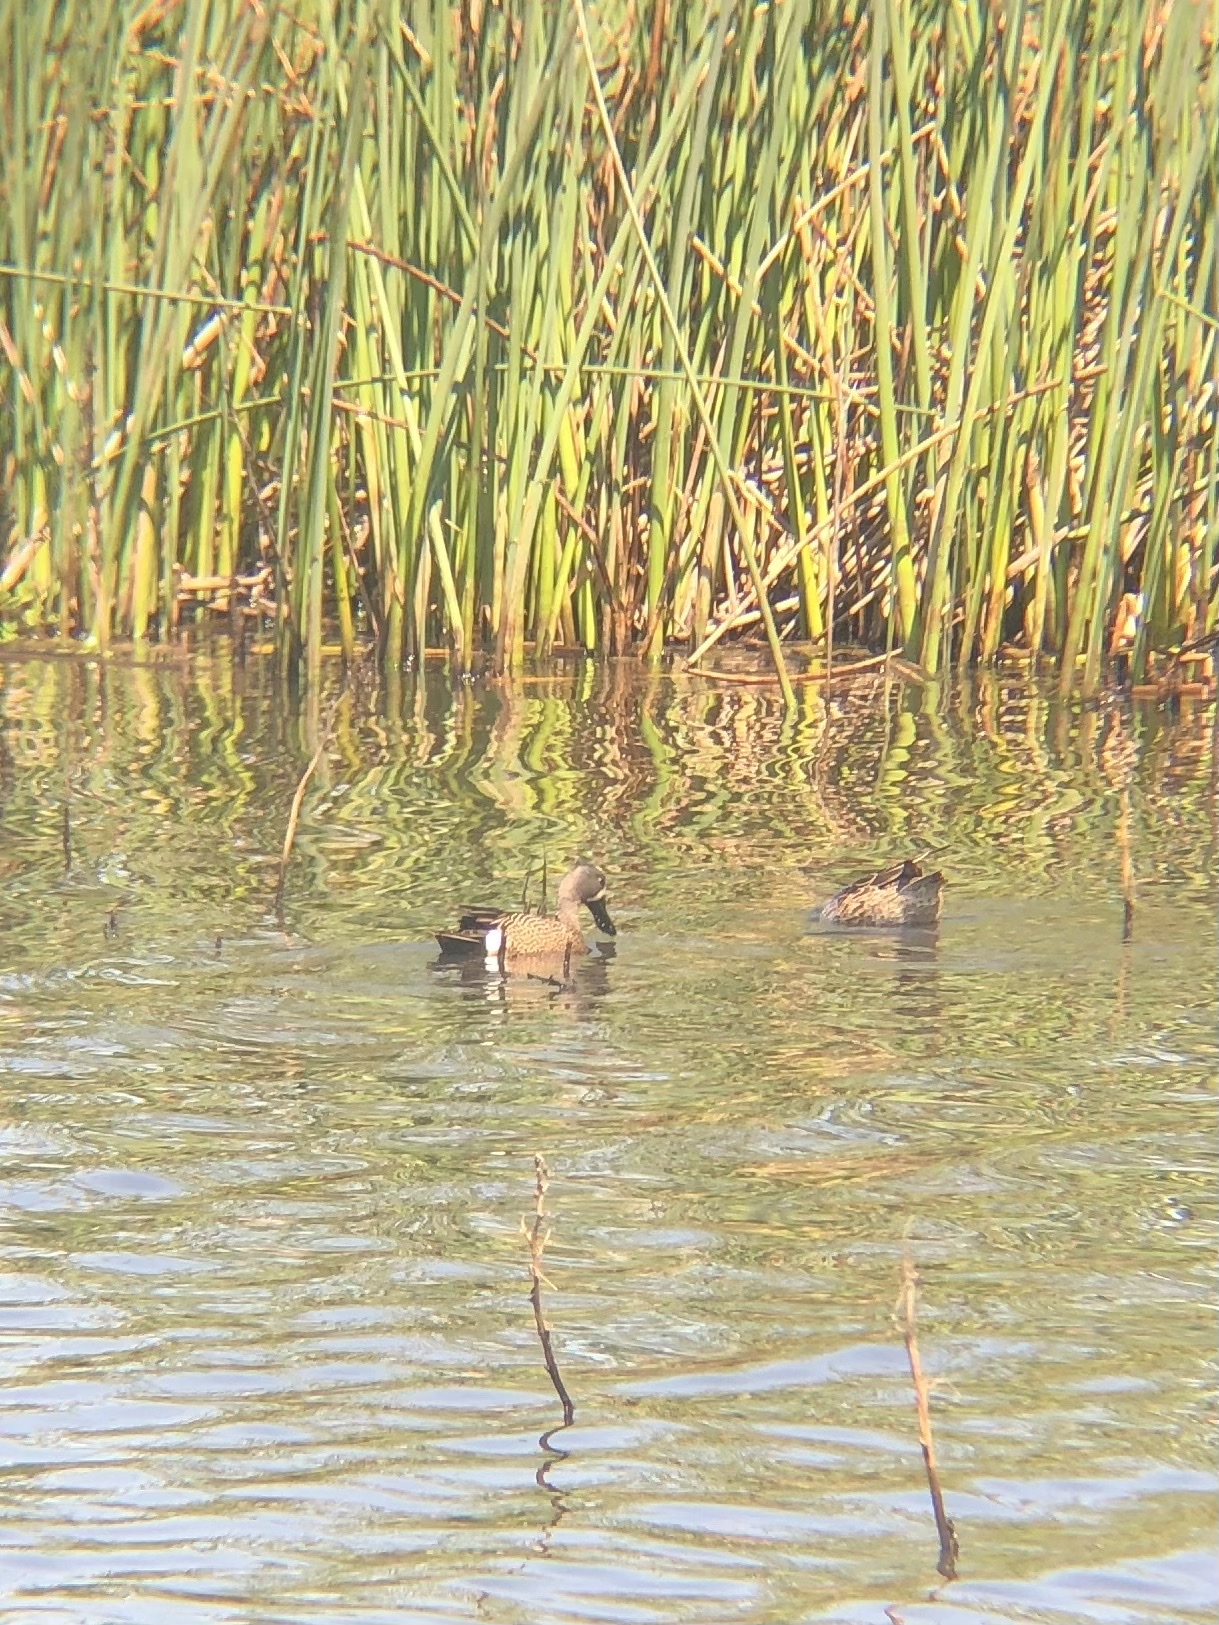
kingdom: Animalia
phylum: Chordata
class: Aves
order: Anseriformes
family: Anatidae
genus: Spatula
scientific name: Spatula discors
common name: Blue-winged teal
